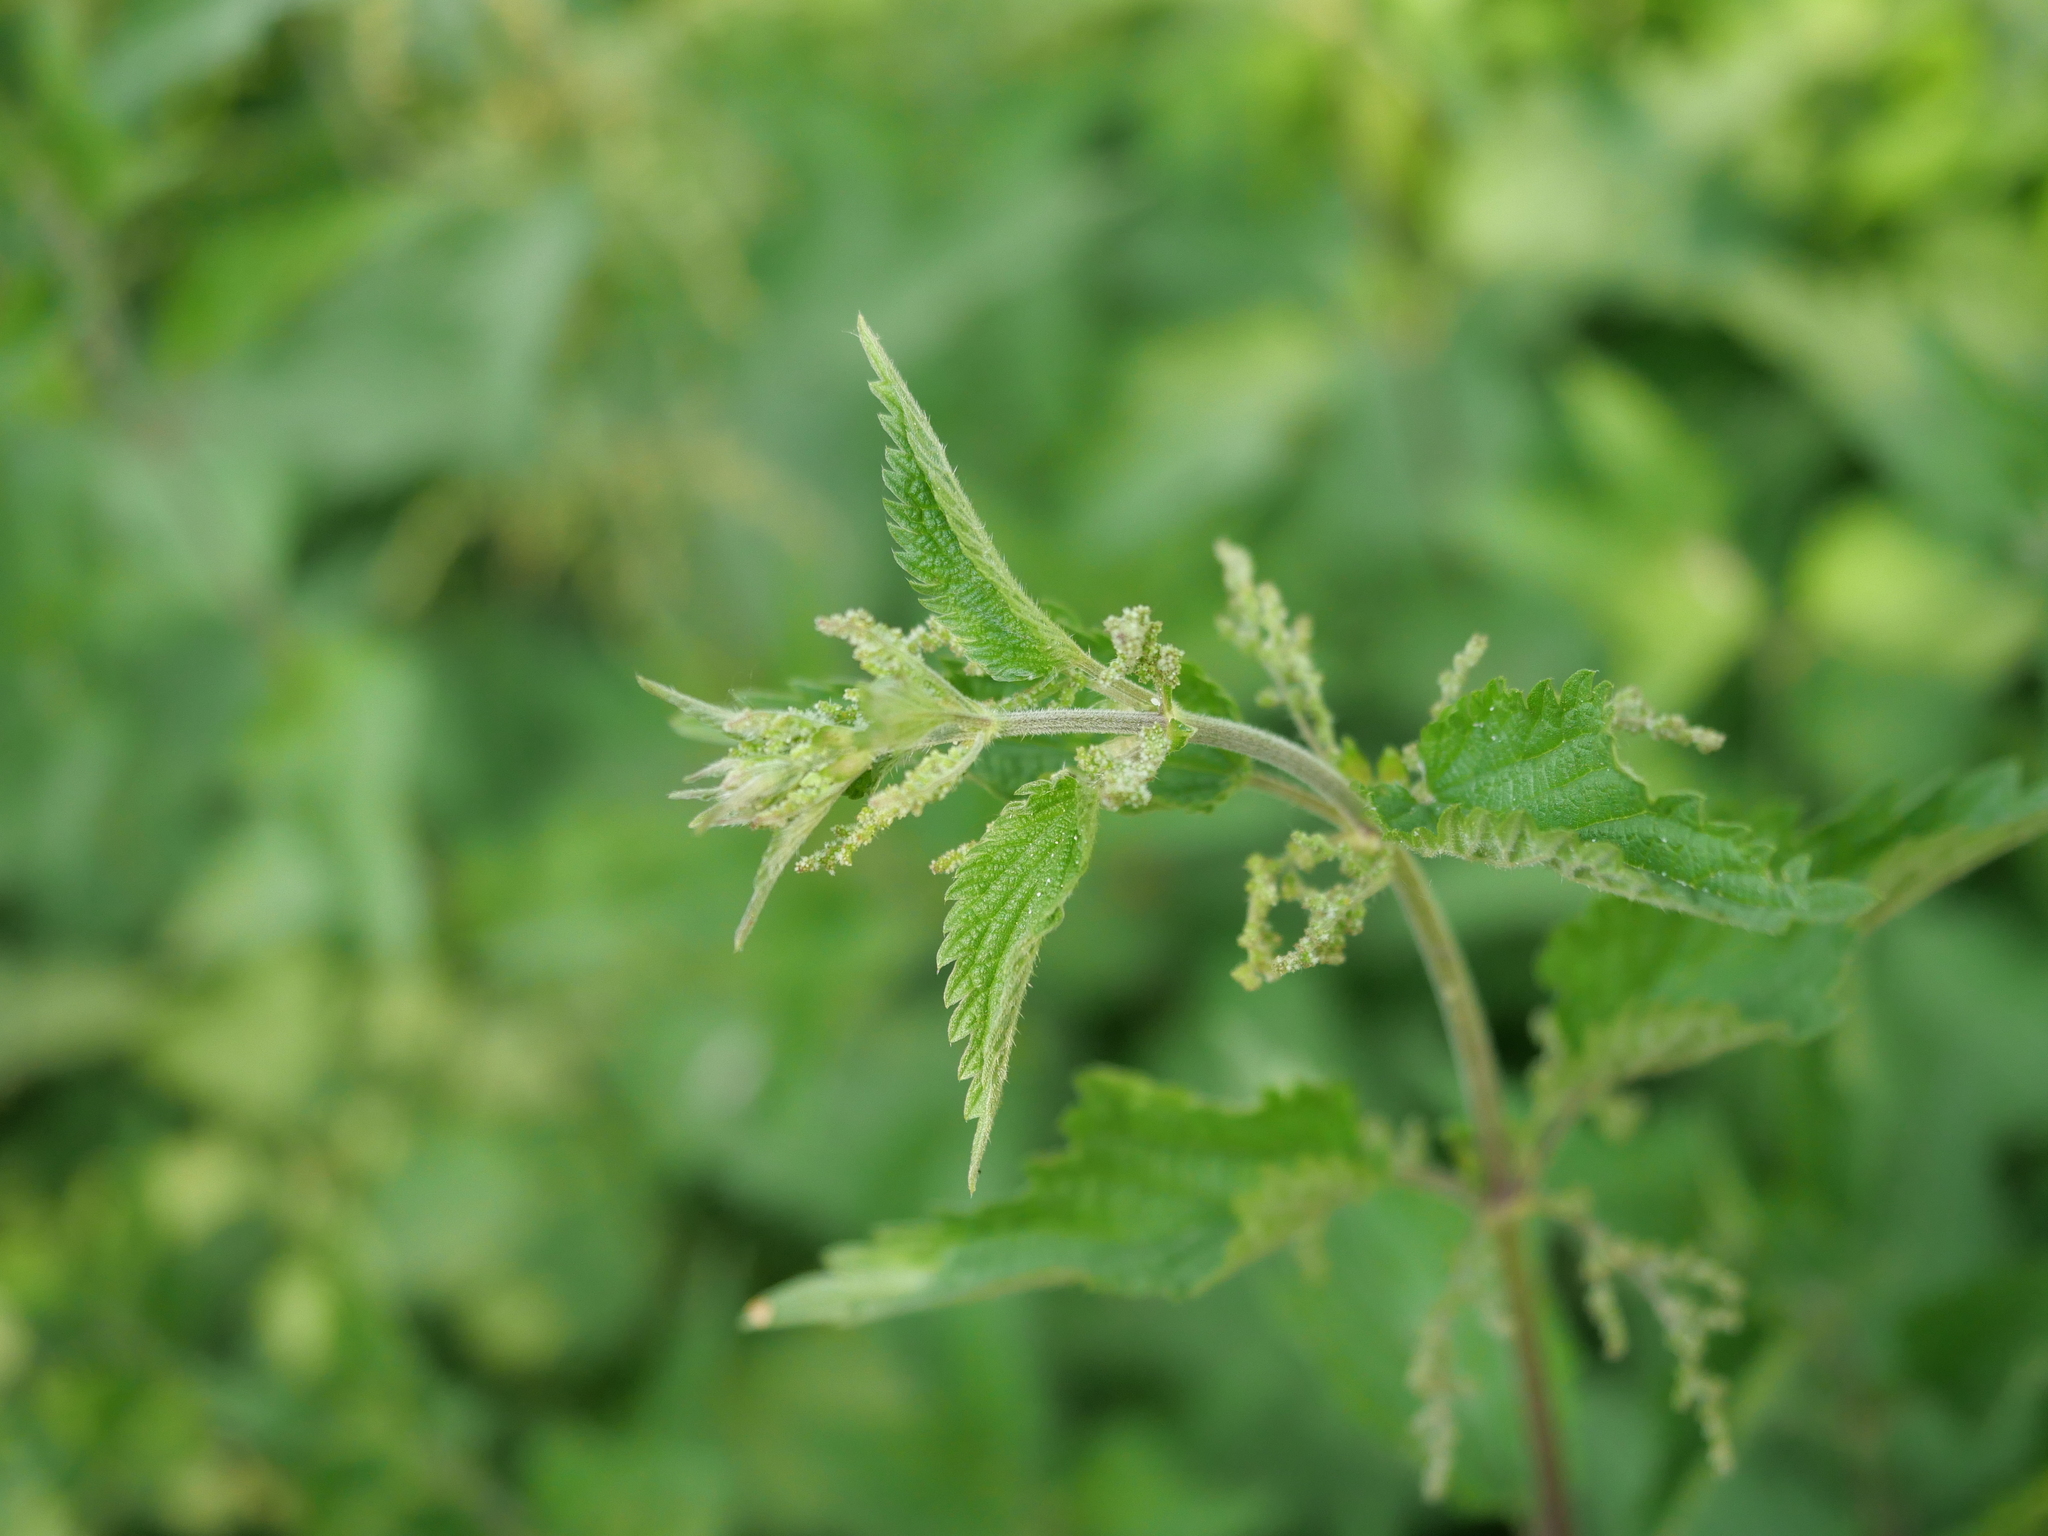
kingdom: Plantae
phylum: Tracheophyta
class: Magnoliopsida
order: Rosales
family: Urticaceae
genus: Urtica
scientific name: Urtica dioica
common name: Common nettle
